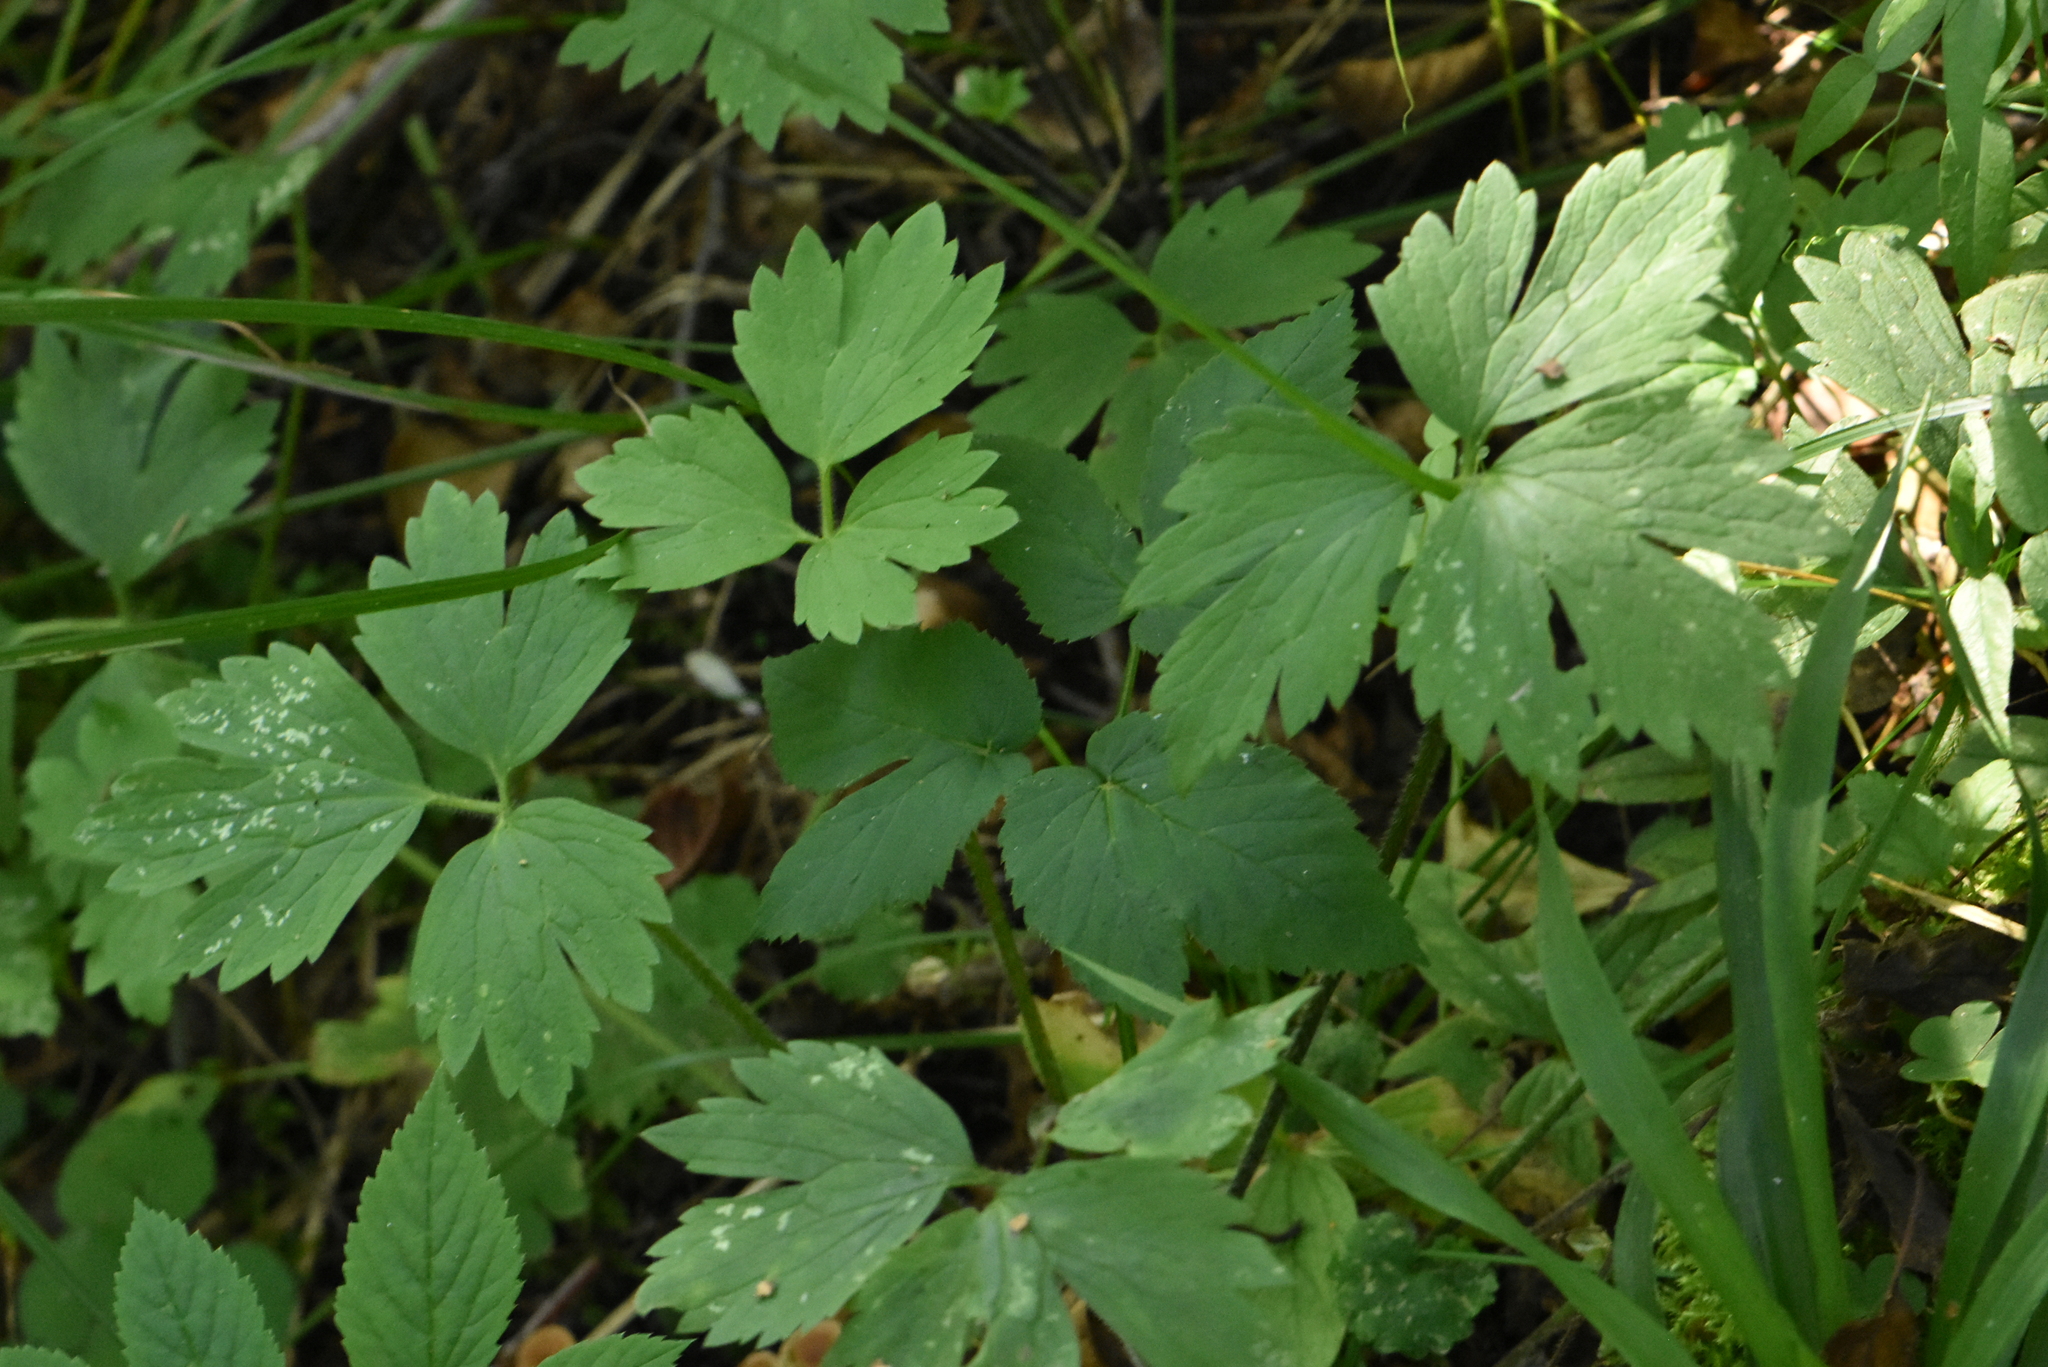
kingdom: Plantae
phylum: Tracheophyta
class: Magnoliopsida
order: Ranunculales
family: Ranunculaceae
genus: Ranunculus
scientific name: Ranunculus repens
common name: Creeping buttercup
